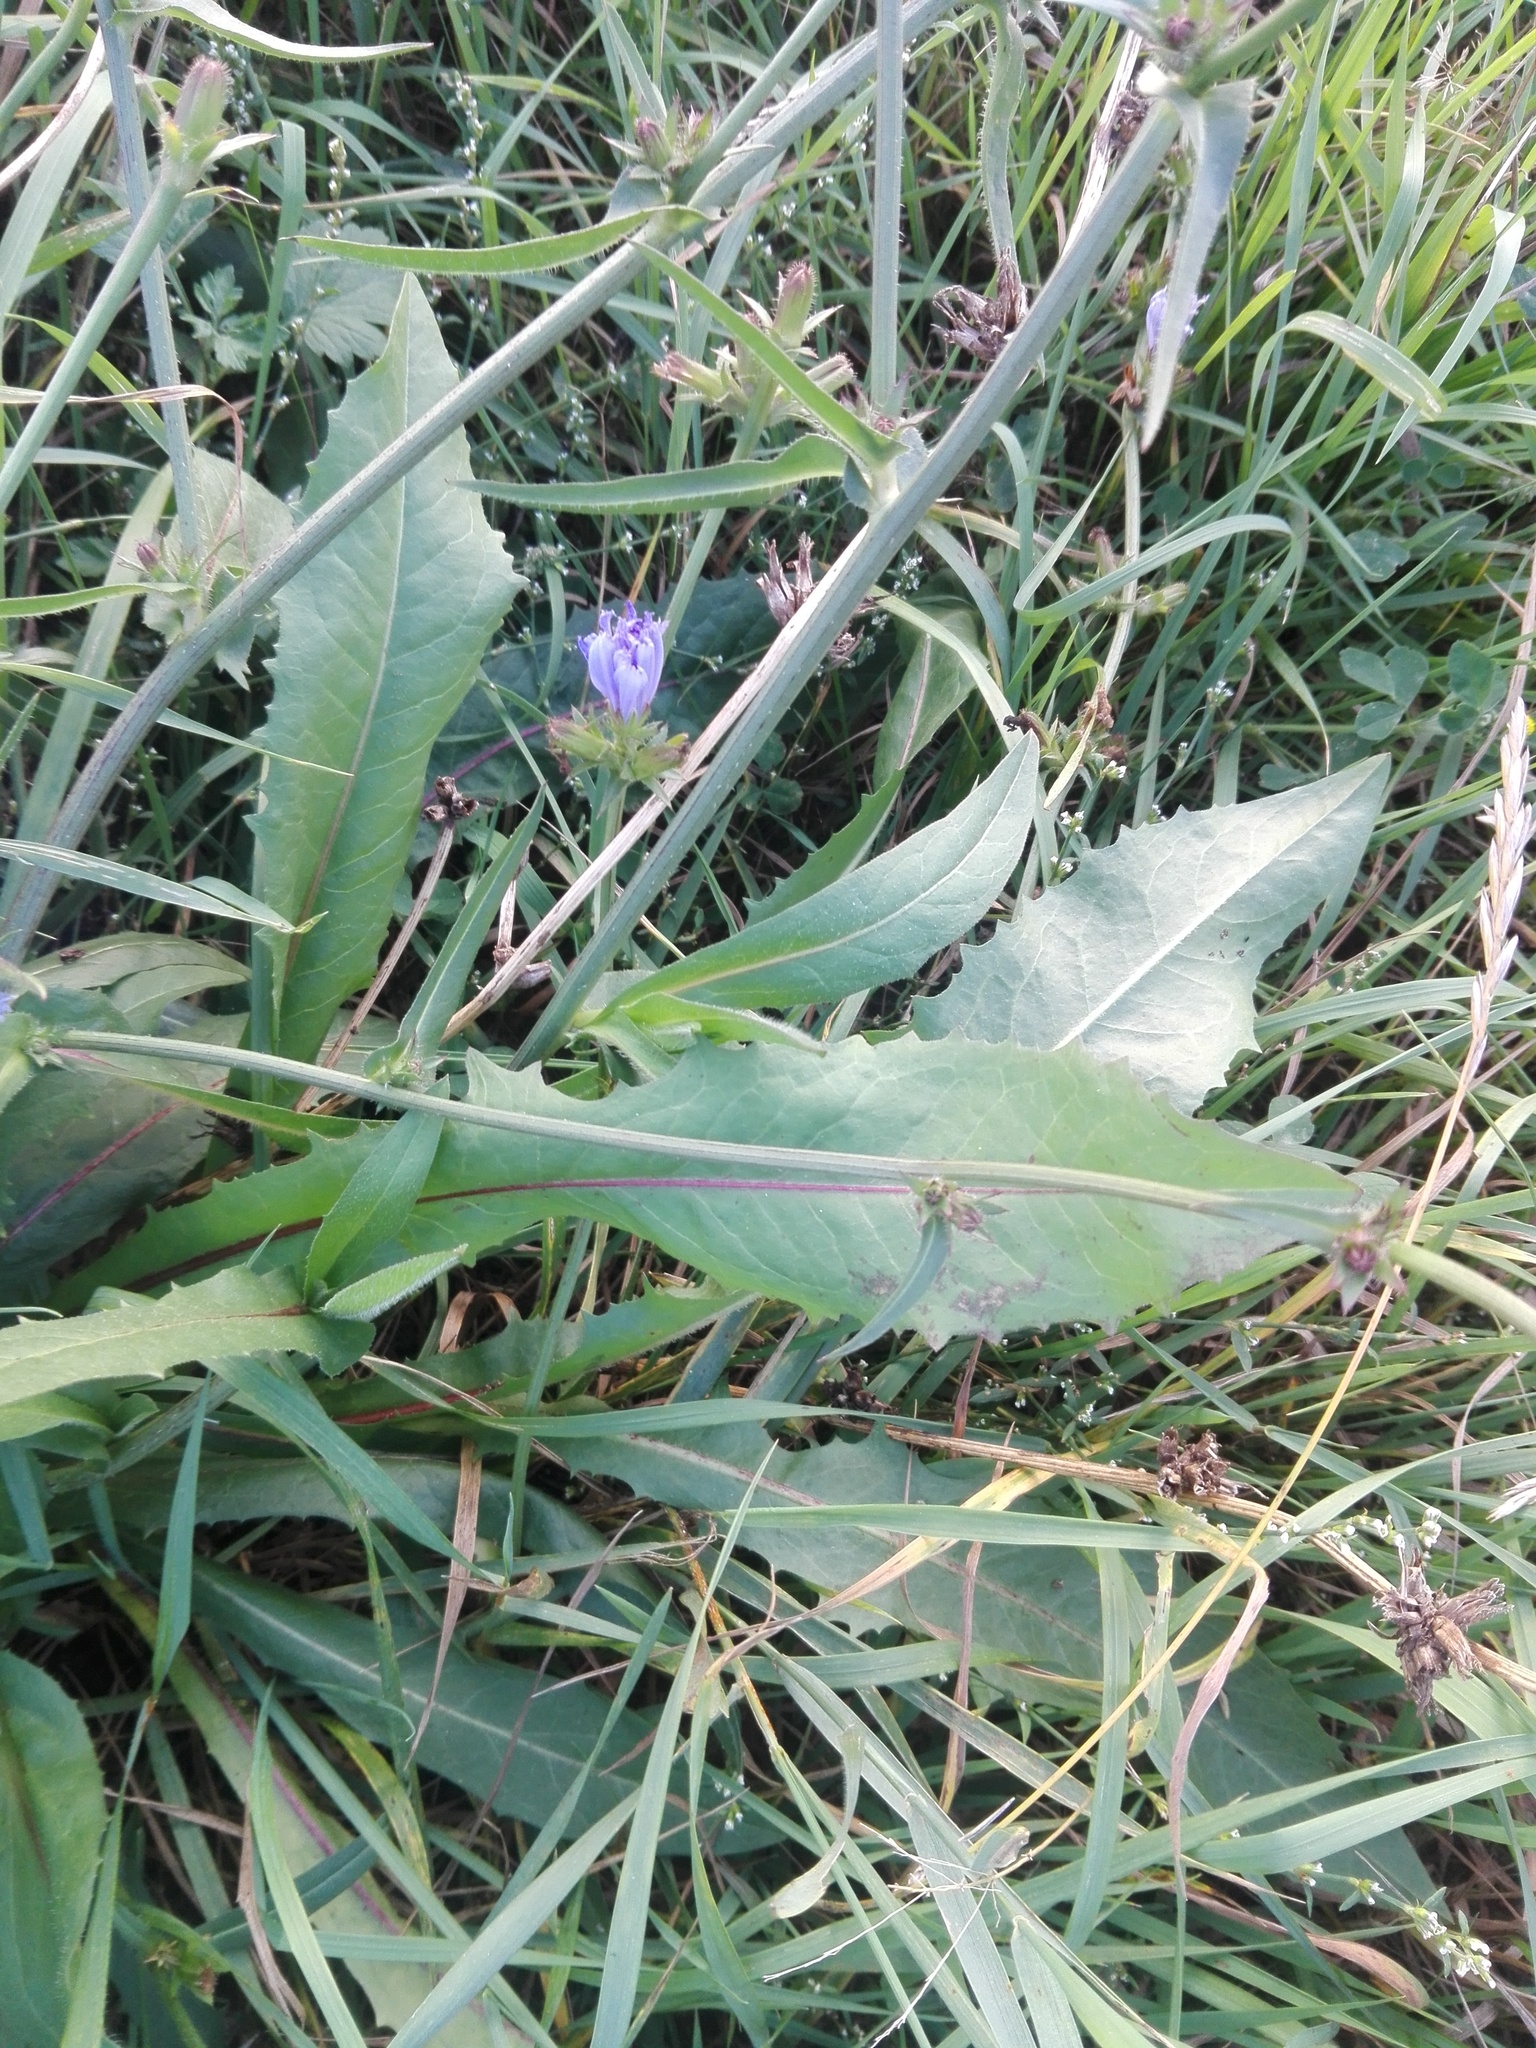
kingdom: Plantae
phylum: Tracheophyta
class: Magnoliopsida
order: Asterales
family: Asteraceae
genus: Cichorium
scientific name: Cichorium intybus
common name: Chicory
